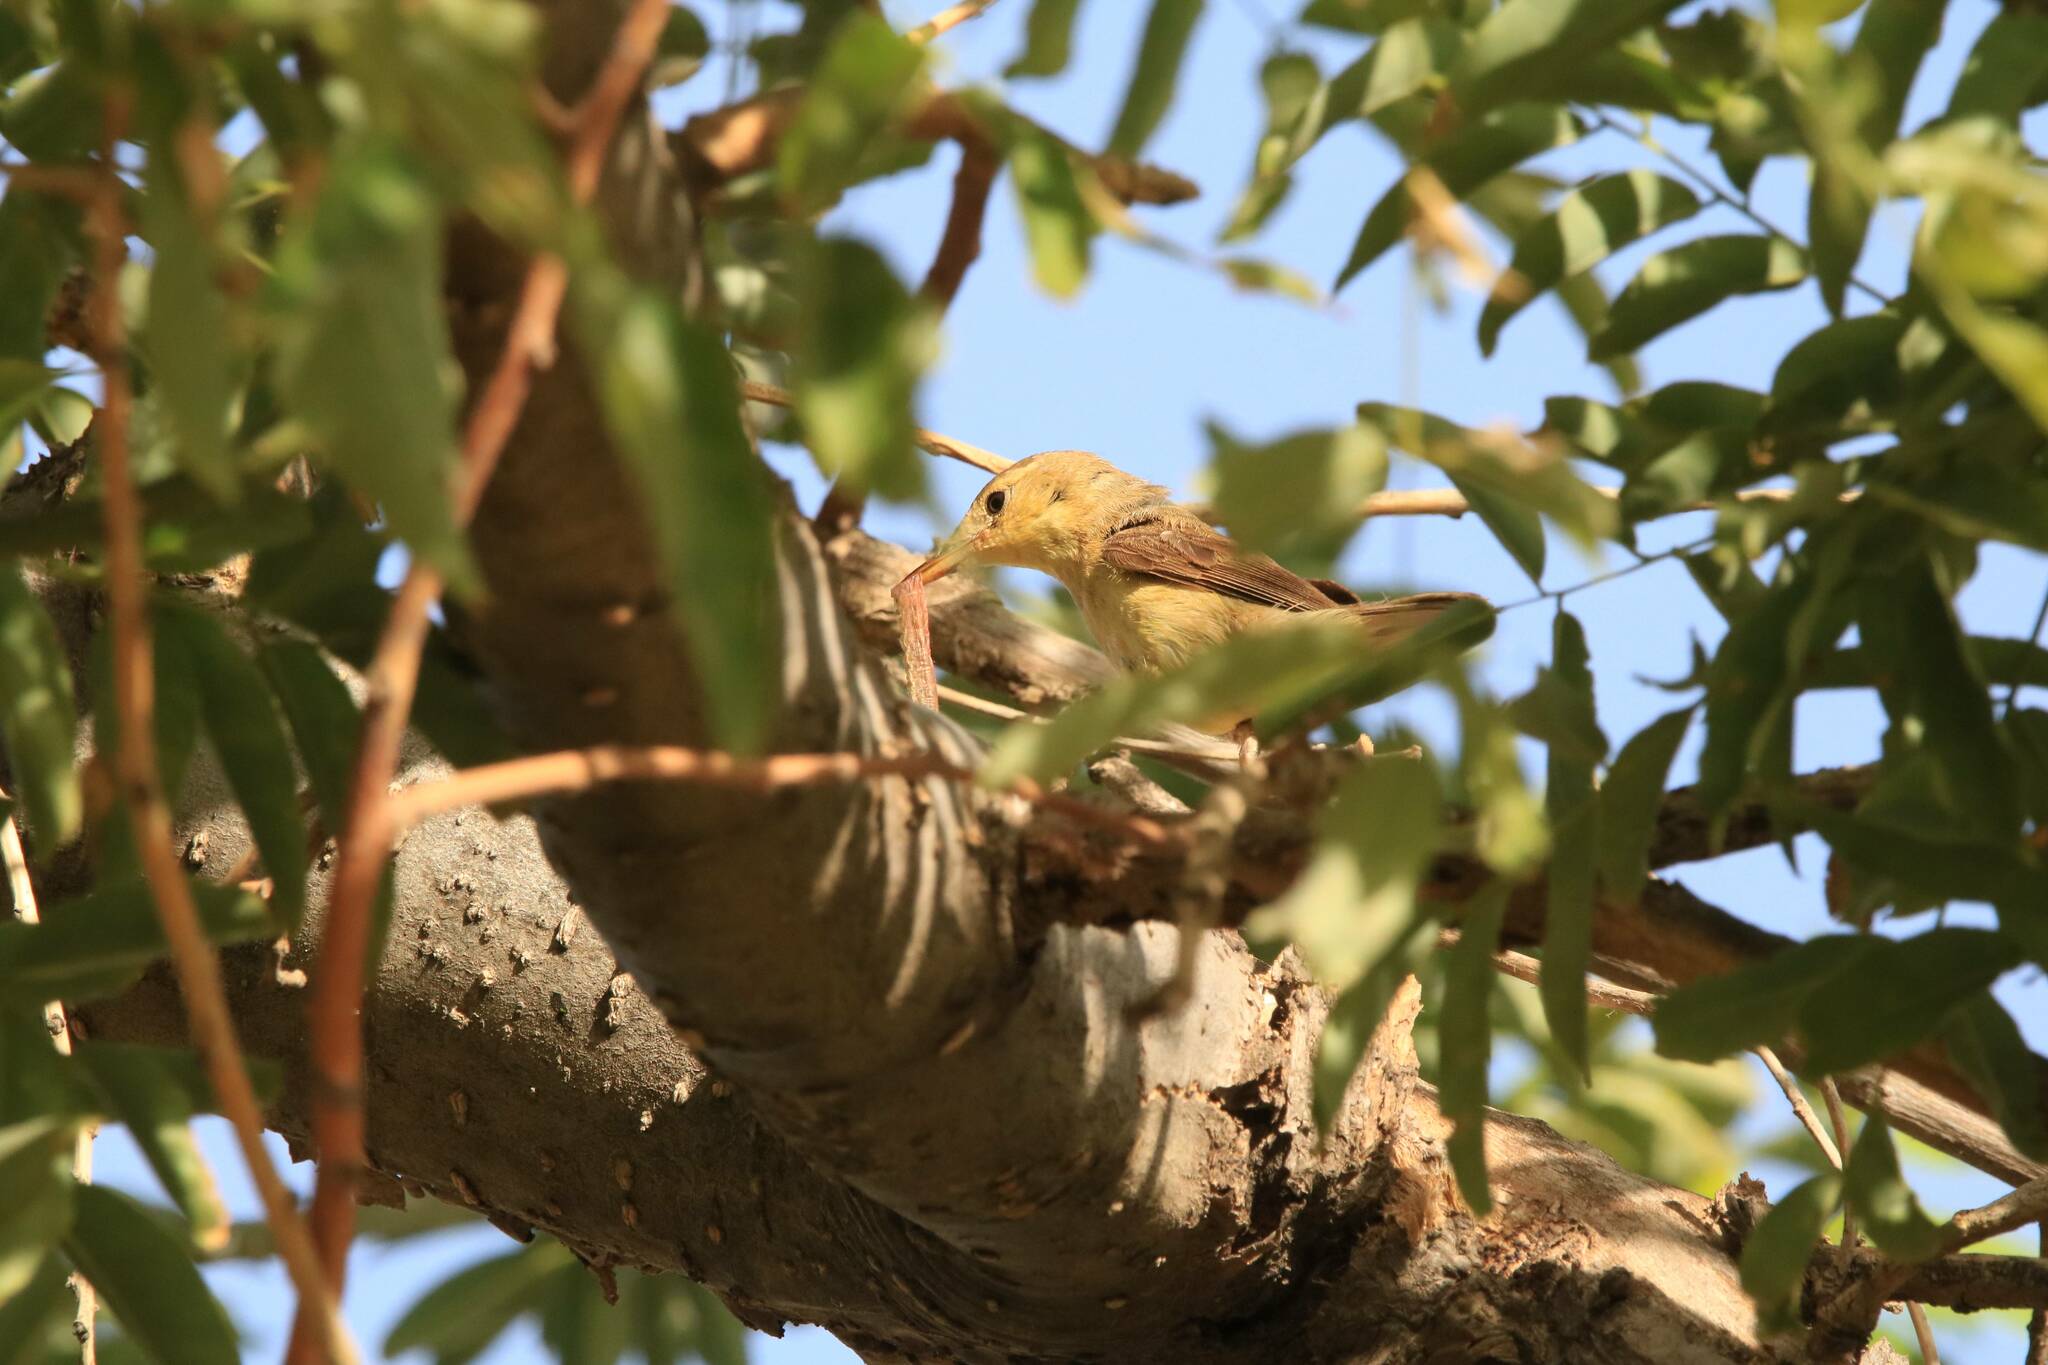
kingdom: Animalia
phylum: Chordata
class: Aves
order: Passeriformes
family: Acrocephalidae
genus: Iduna
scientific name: Iduna opaca
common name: Western olivaceous warbler
